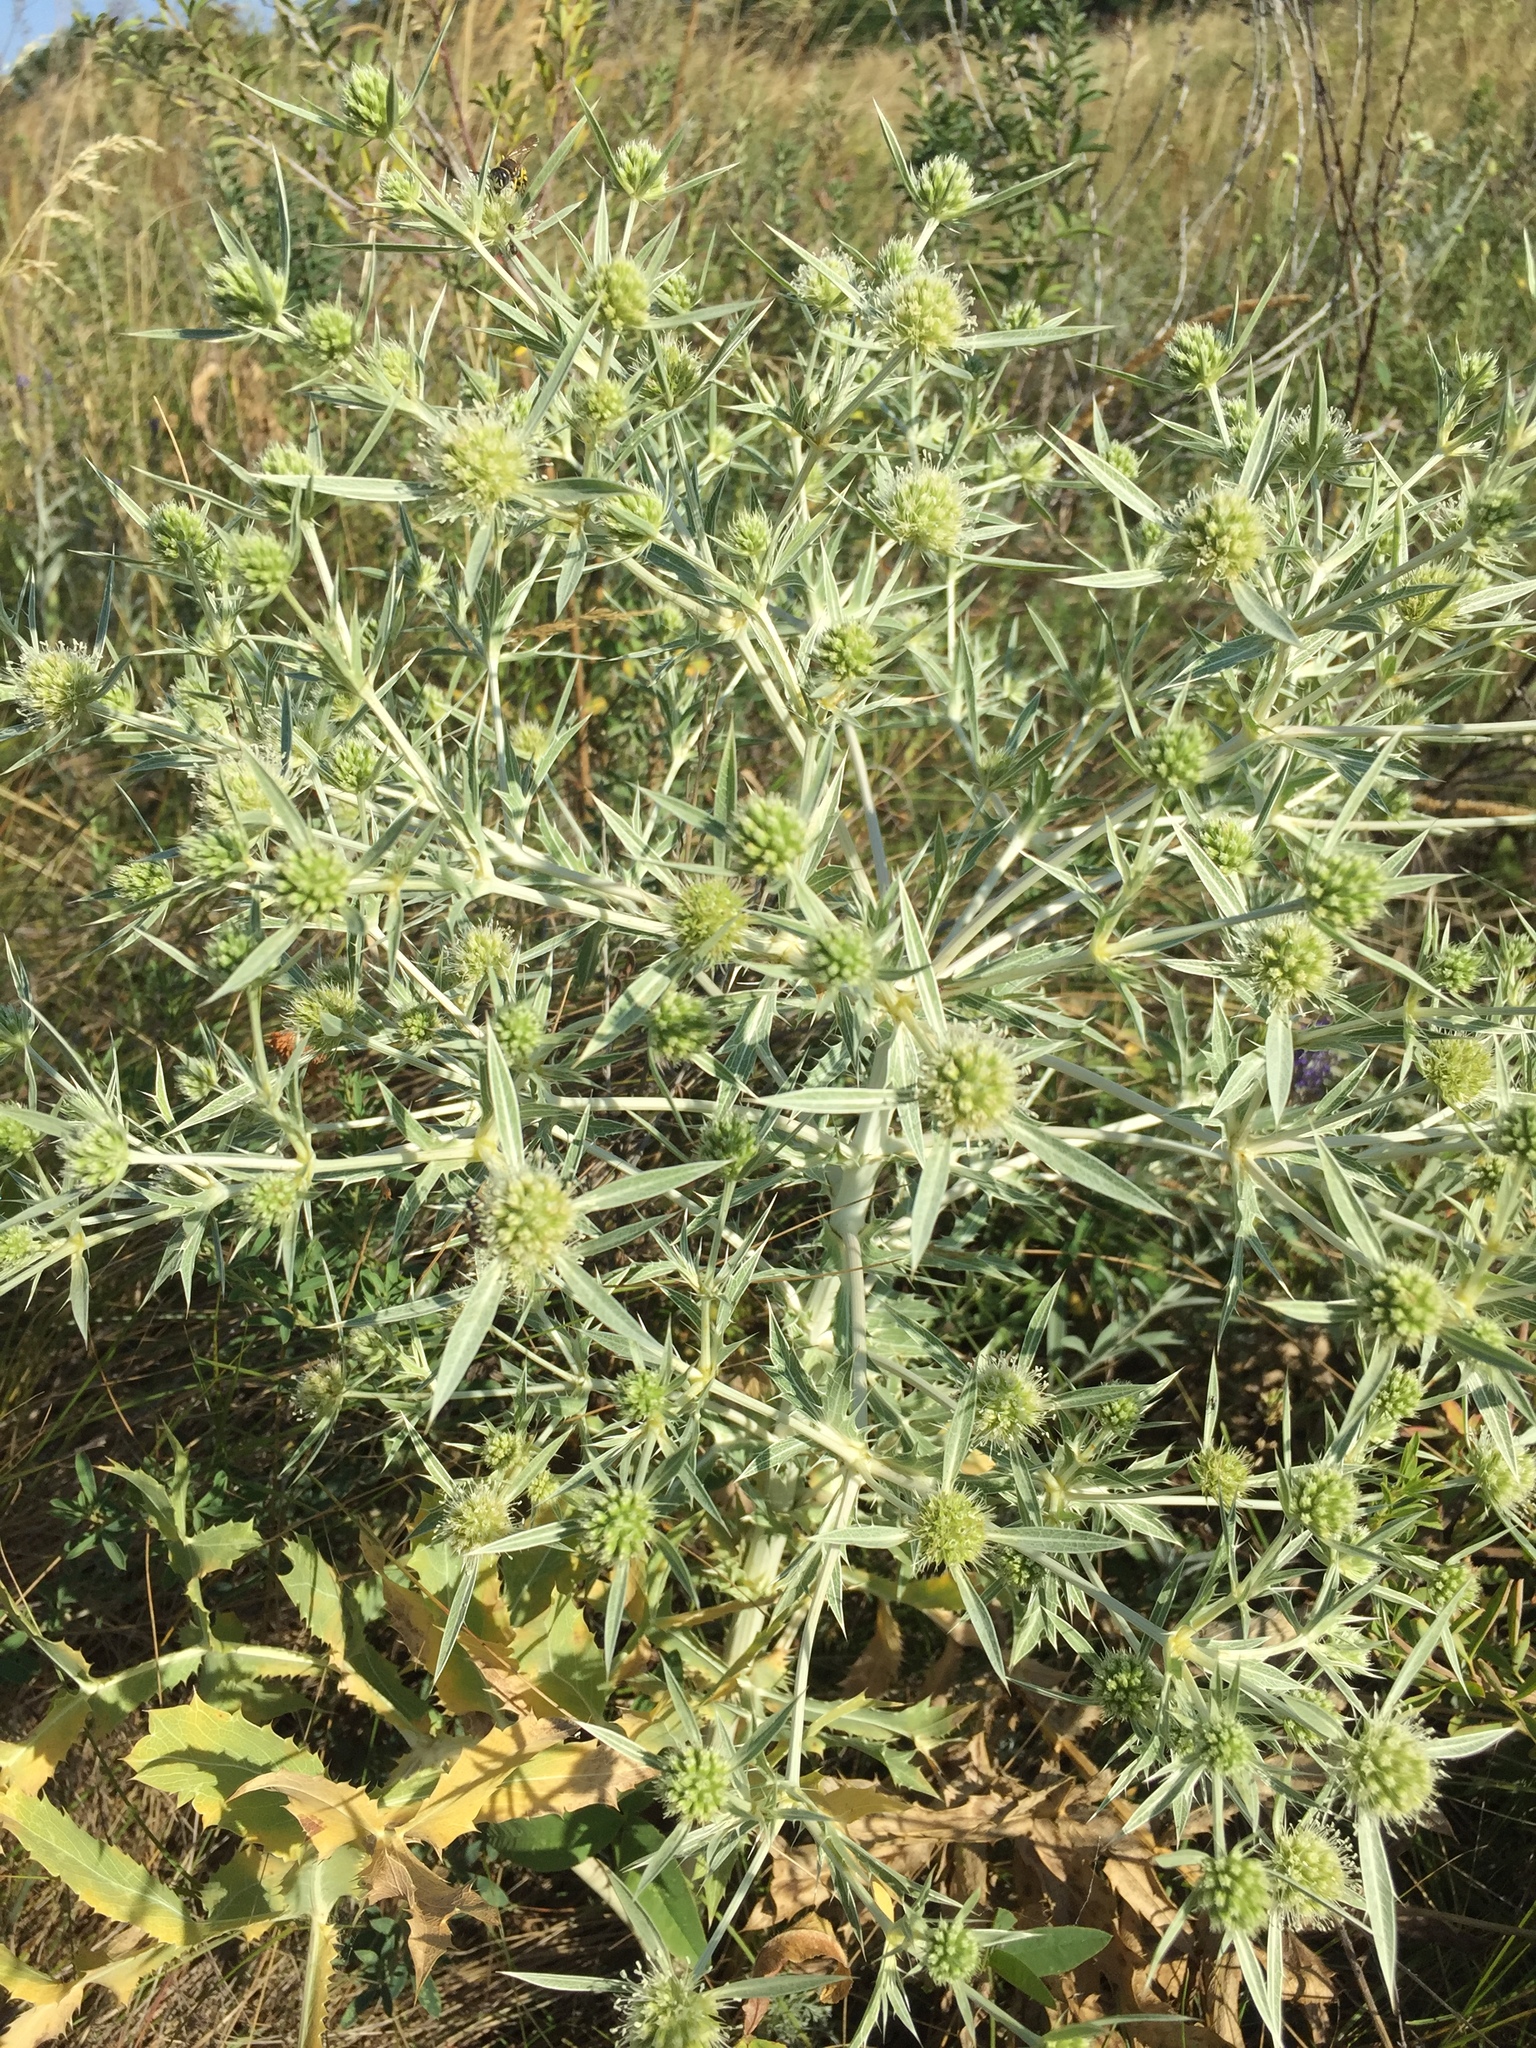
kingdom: Plantae
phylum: Tracheophyta
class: Magnoliopsida
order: Apiales
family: Apiaceae
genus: Eryngium
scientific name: Eryngium campestre
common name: Field eryngo
